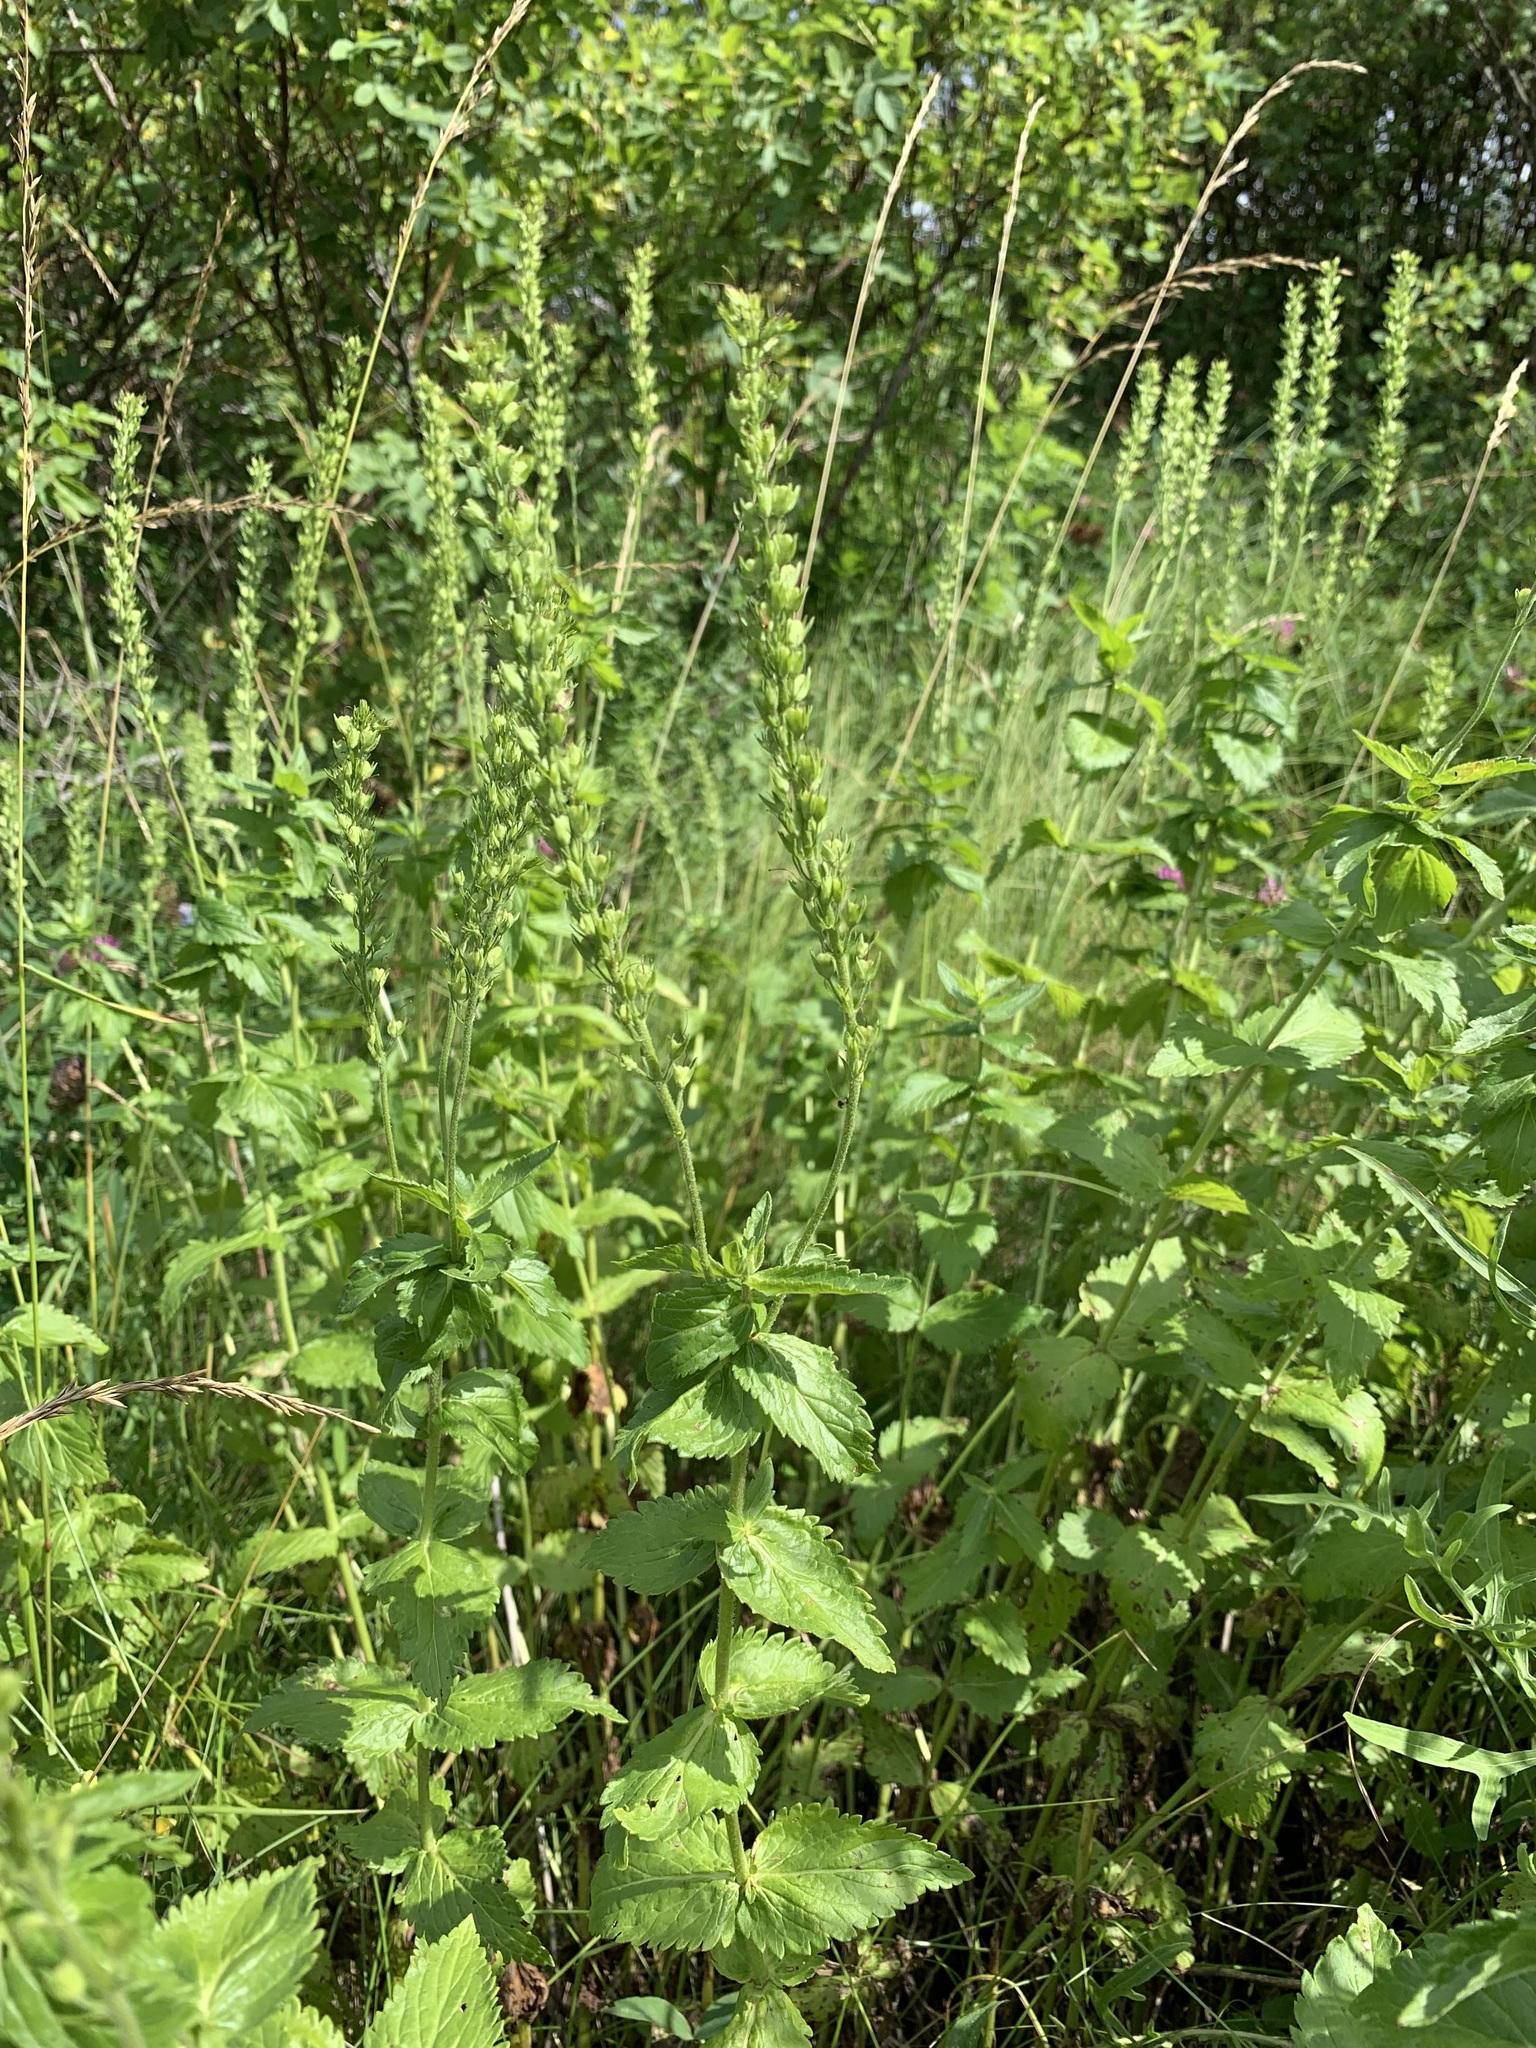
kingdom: Plantae
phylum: Tracheophyta
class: Magnoliopsida
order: Lamiales
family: Plantaginaceae
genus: Veronica
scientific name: Veronica teucrium
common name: Large speedwell
